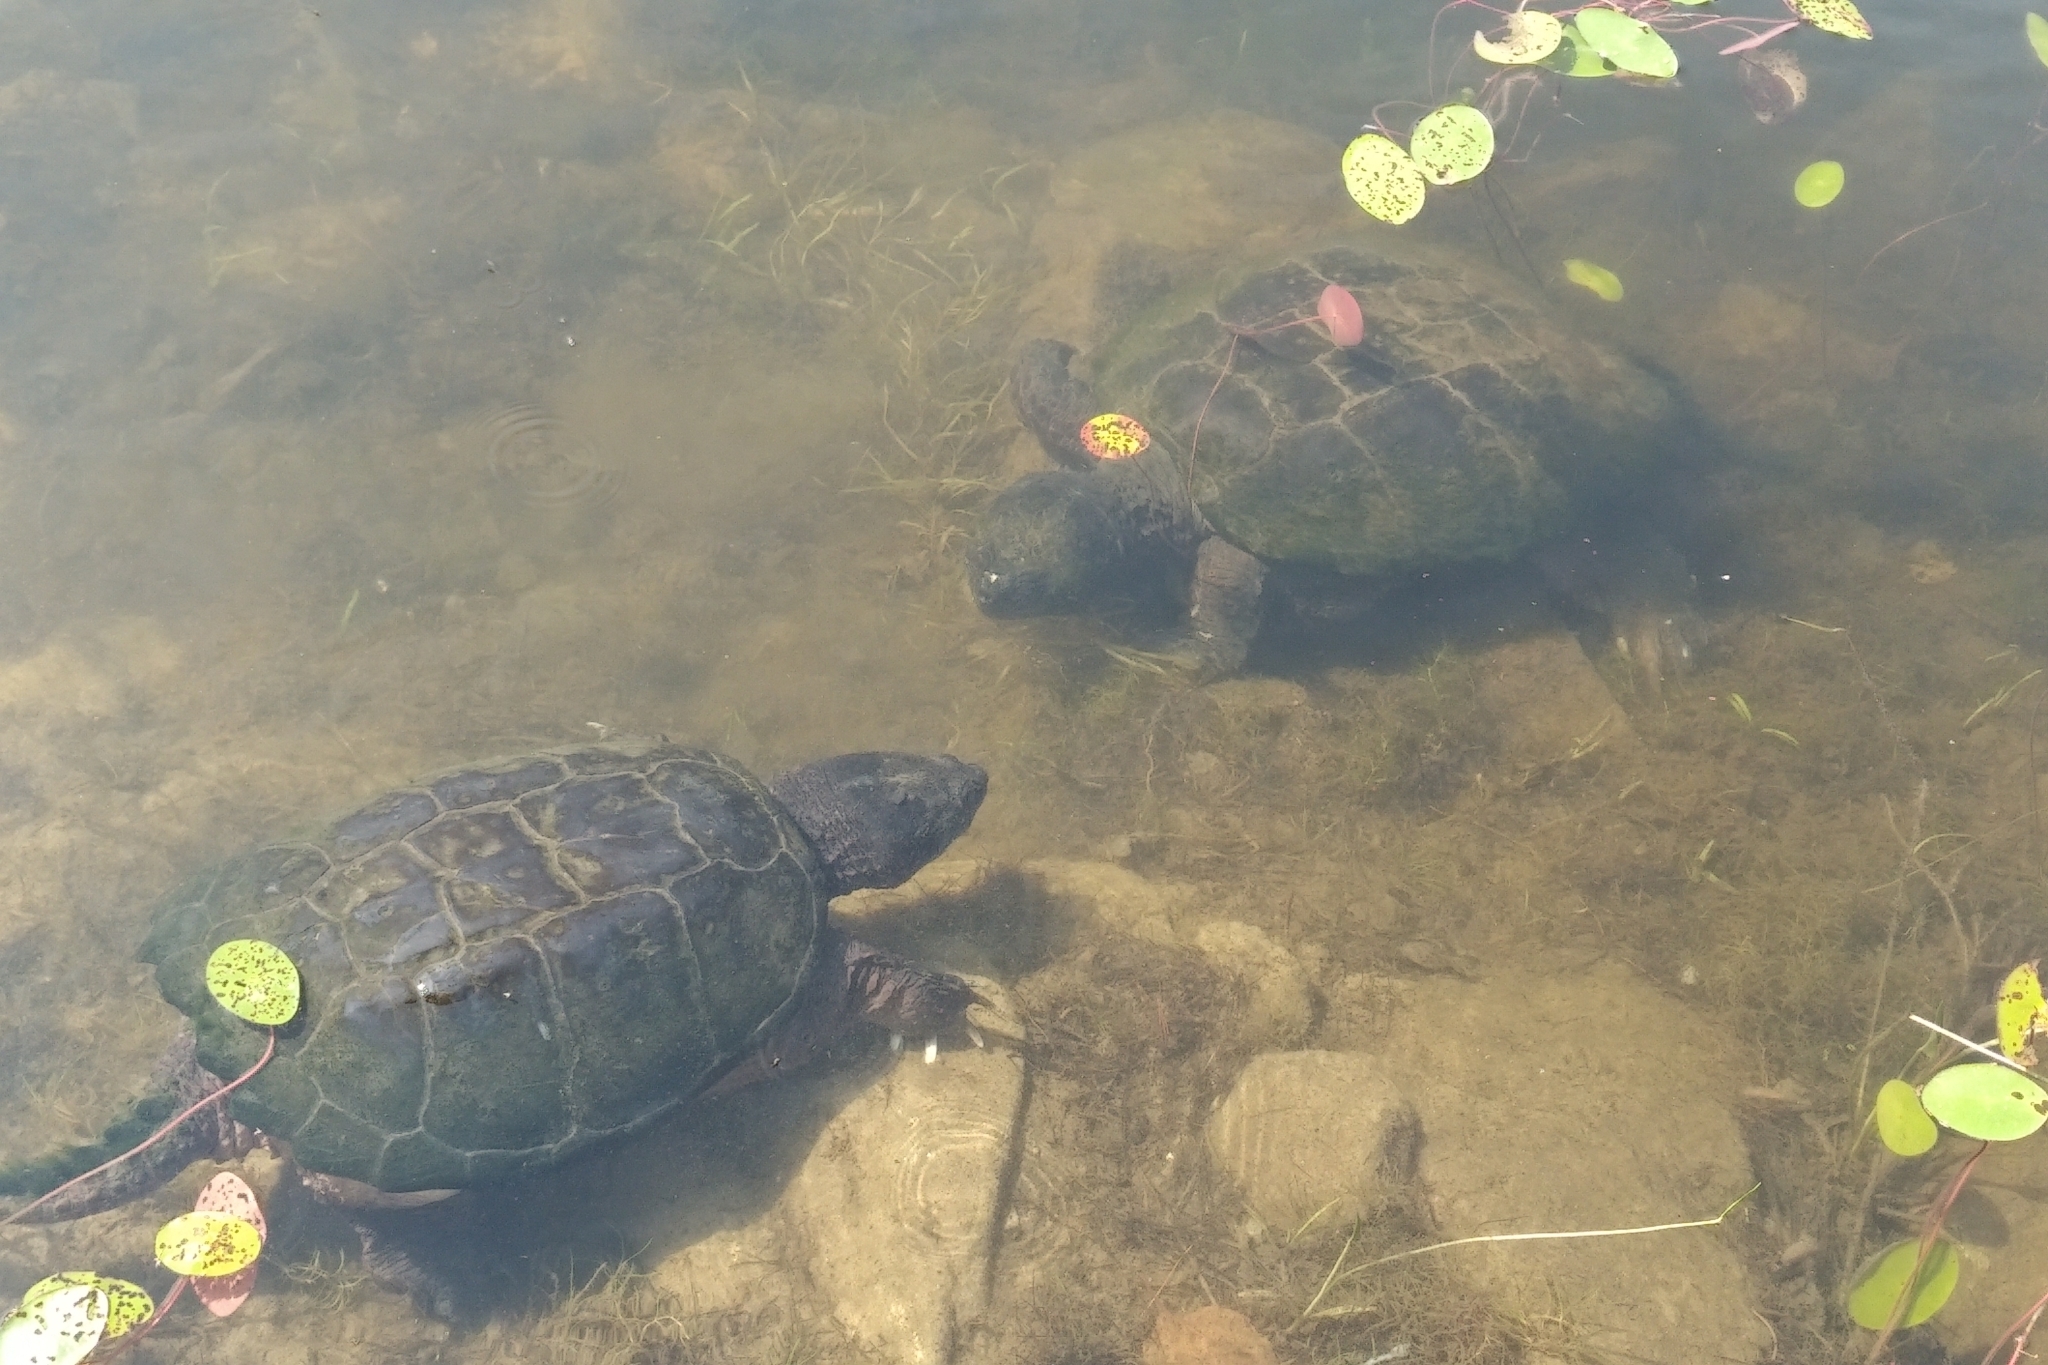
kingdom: Animalia
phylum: Chordata
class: Testudines
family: Chelydridae
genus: Chelydra
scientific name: Chelydra serpentina
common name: Common snapping turtle
